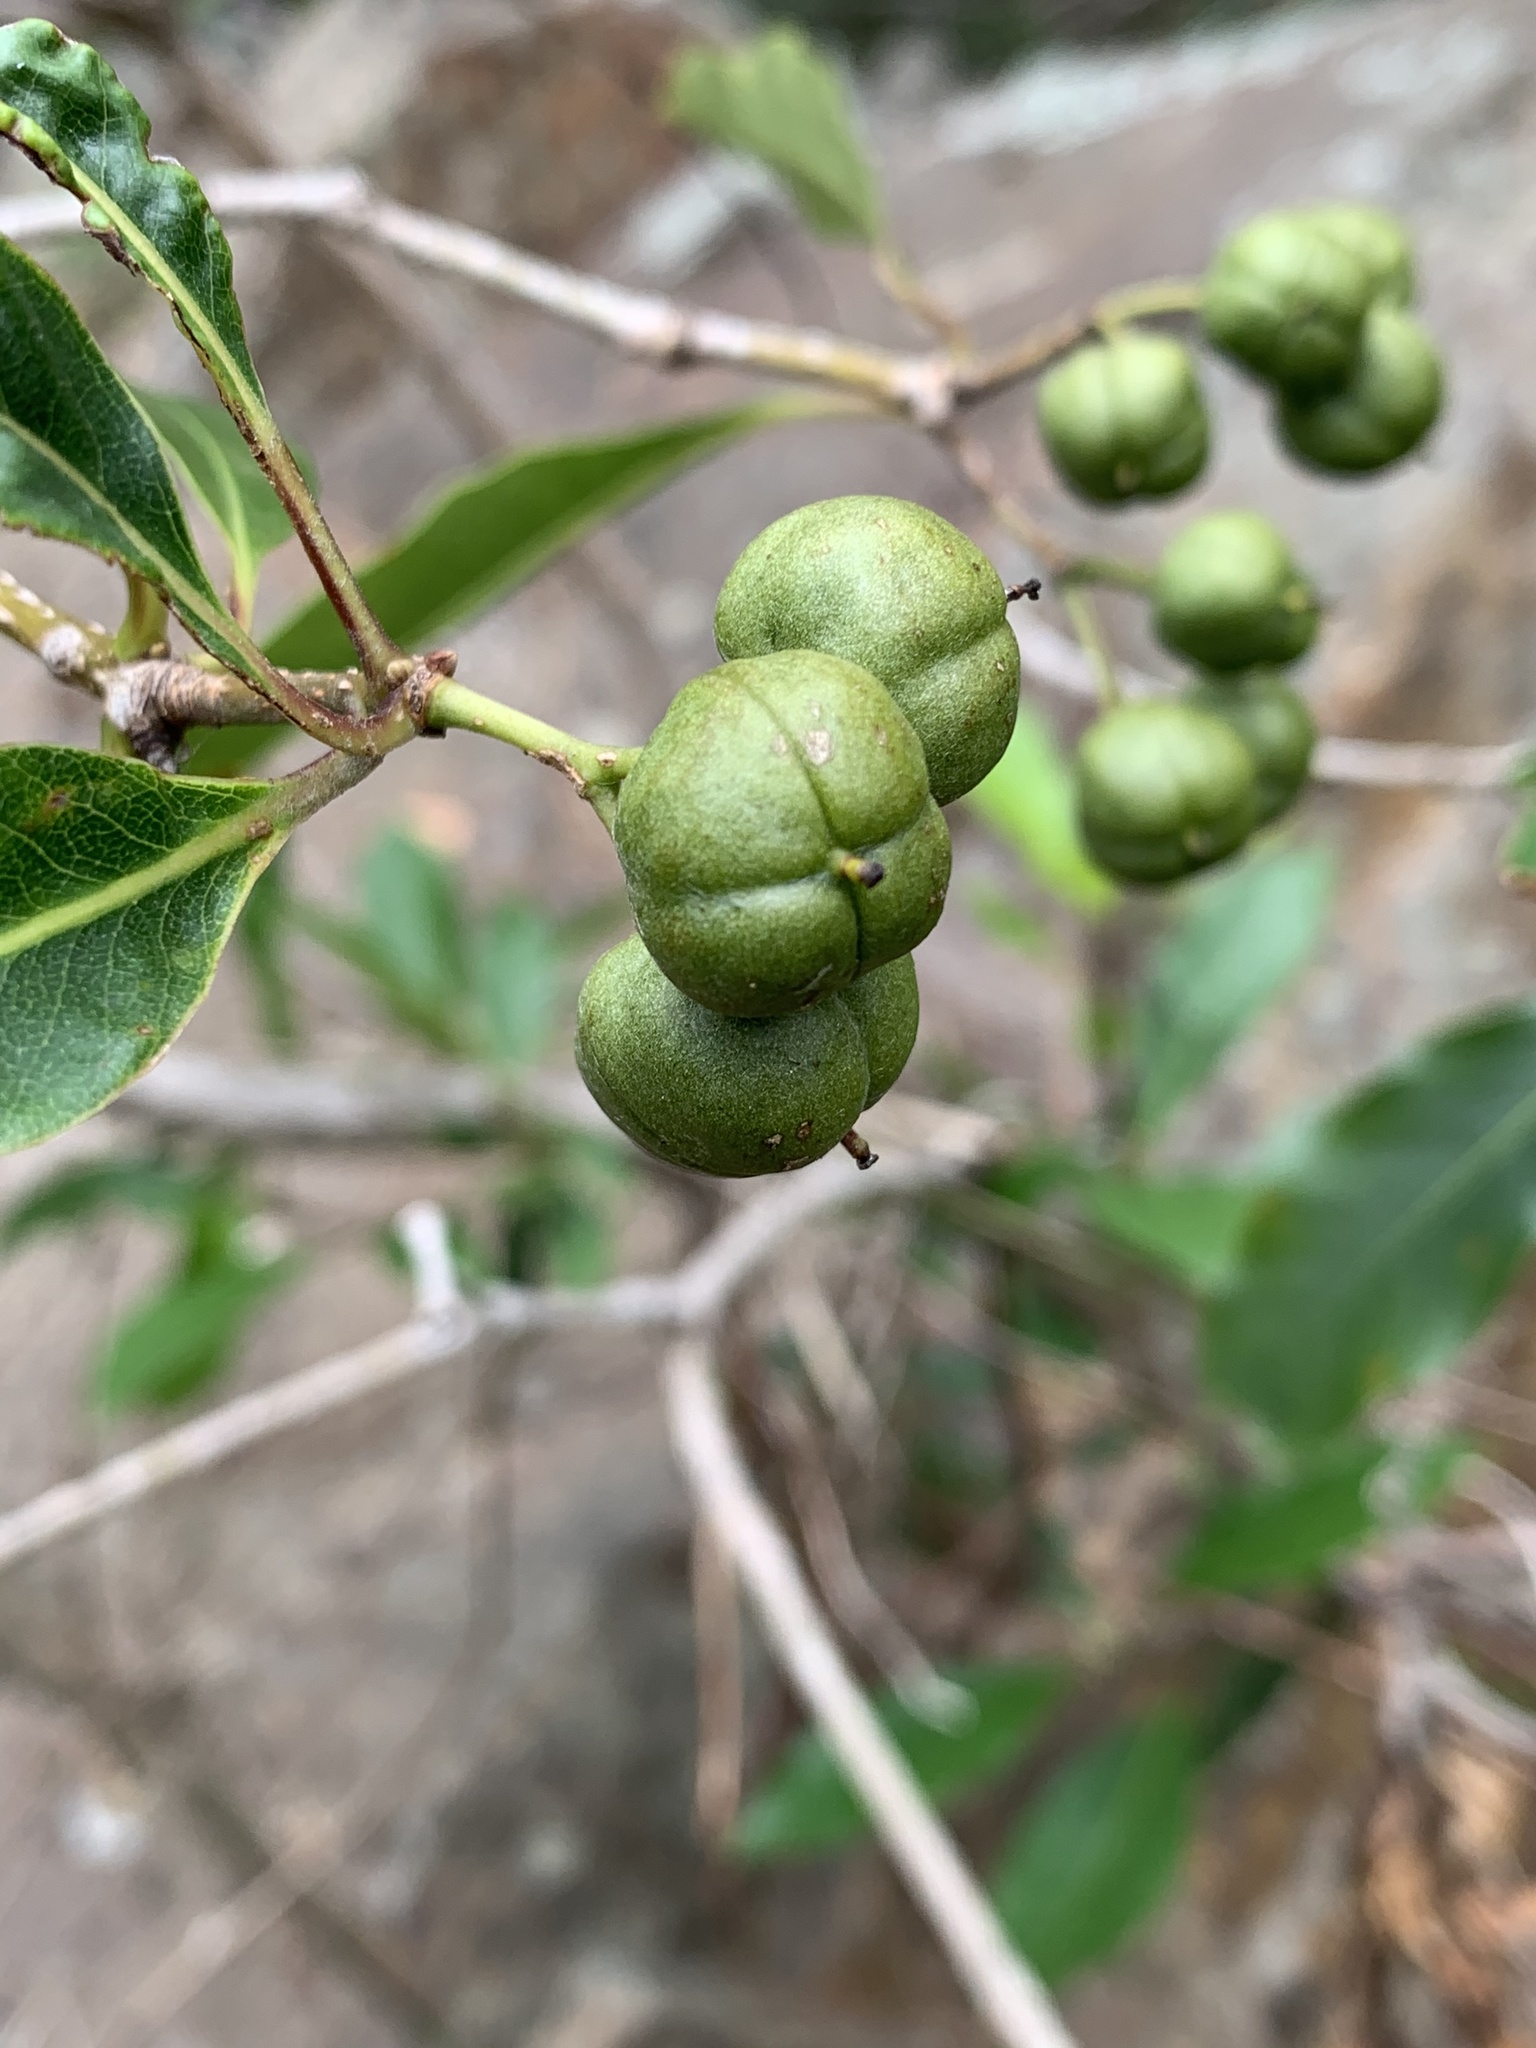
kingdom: Plantae
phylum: Tracheophyta
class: Magnoliopsida
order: Apiales
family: Pittosporaceae
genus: Pittosporum
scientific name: Pittosporum undulatum
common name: Australian cheesewood
